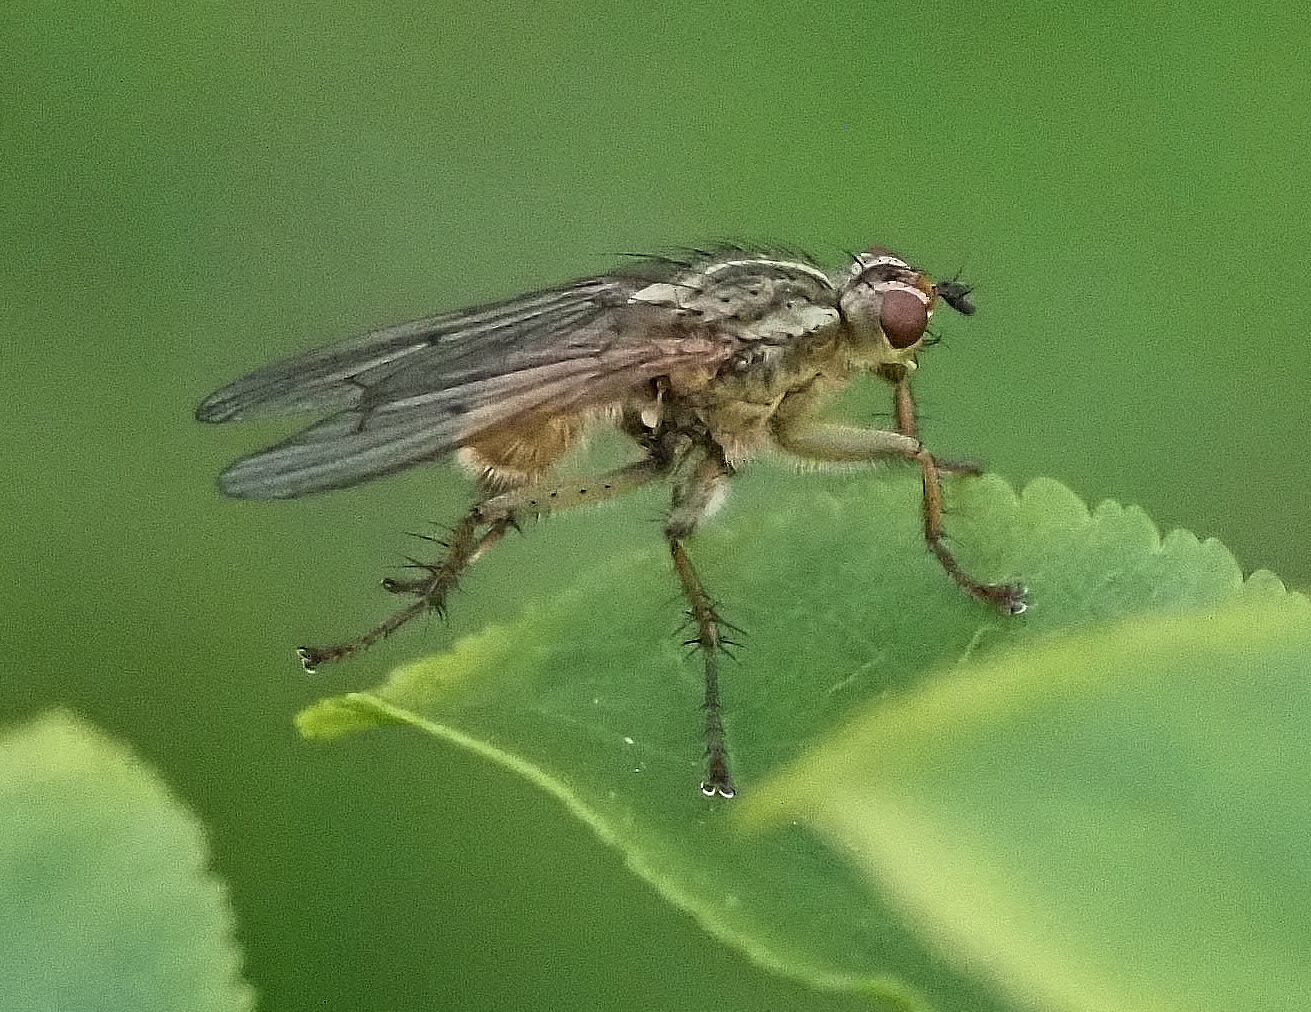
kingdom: Animalia
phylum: Arthropoda
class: Insecta
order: Diptera
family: Scathophagidae
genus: Scathophaga
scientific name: Scathophaga stercoraria
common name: Yellow dung fly
